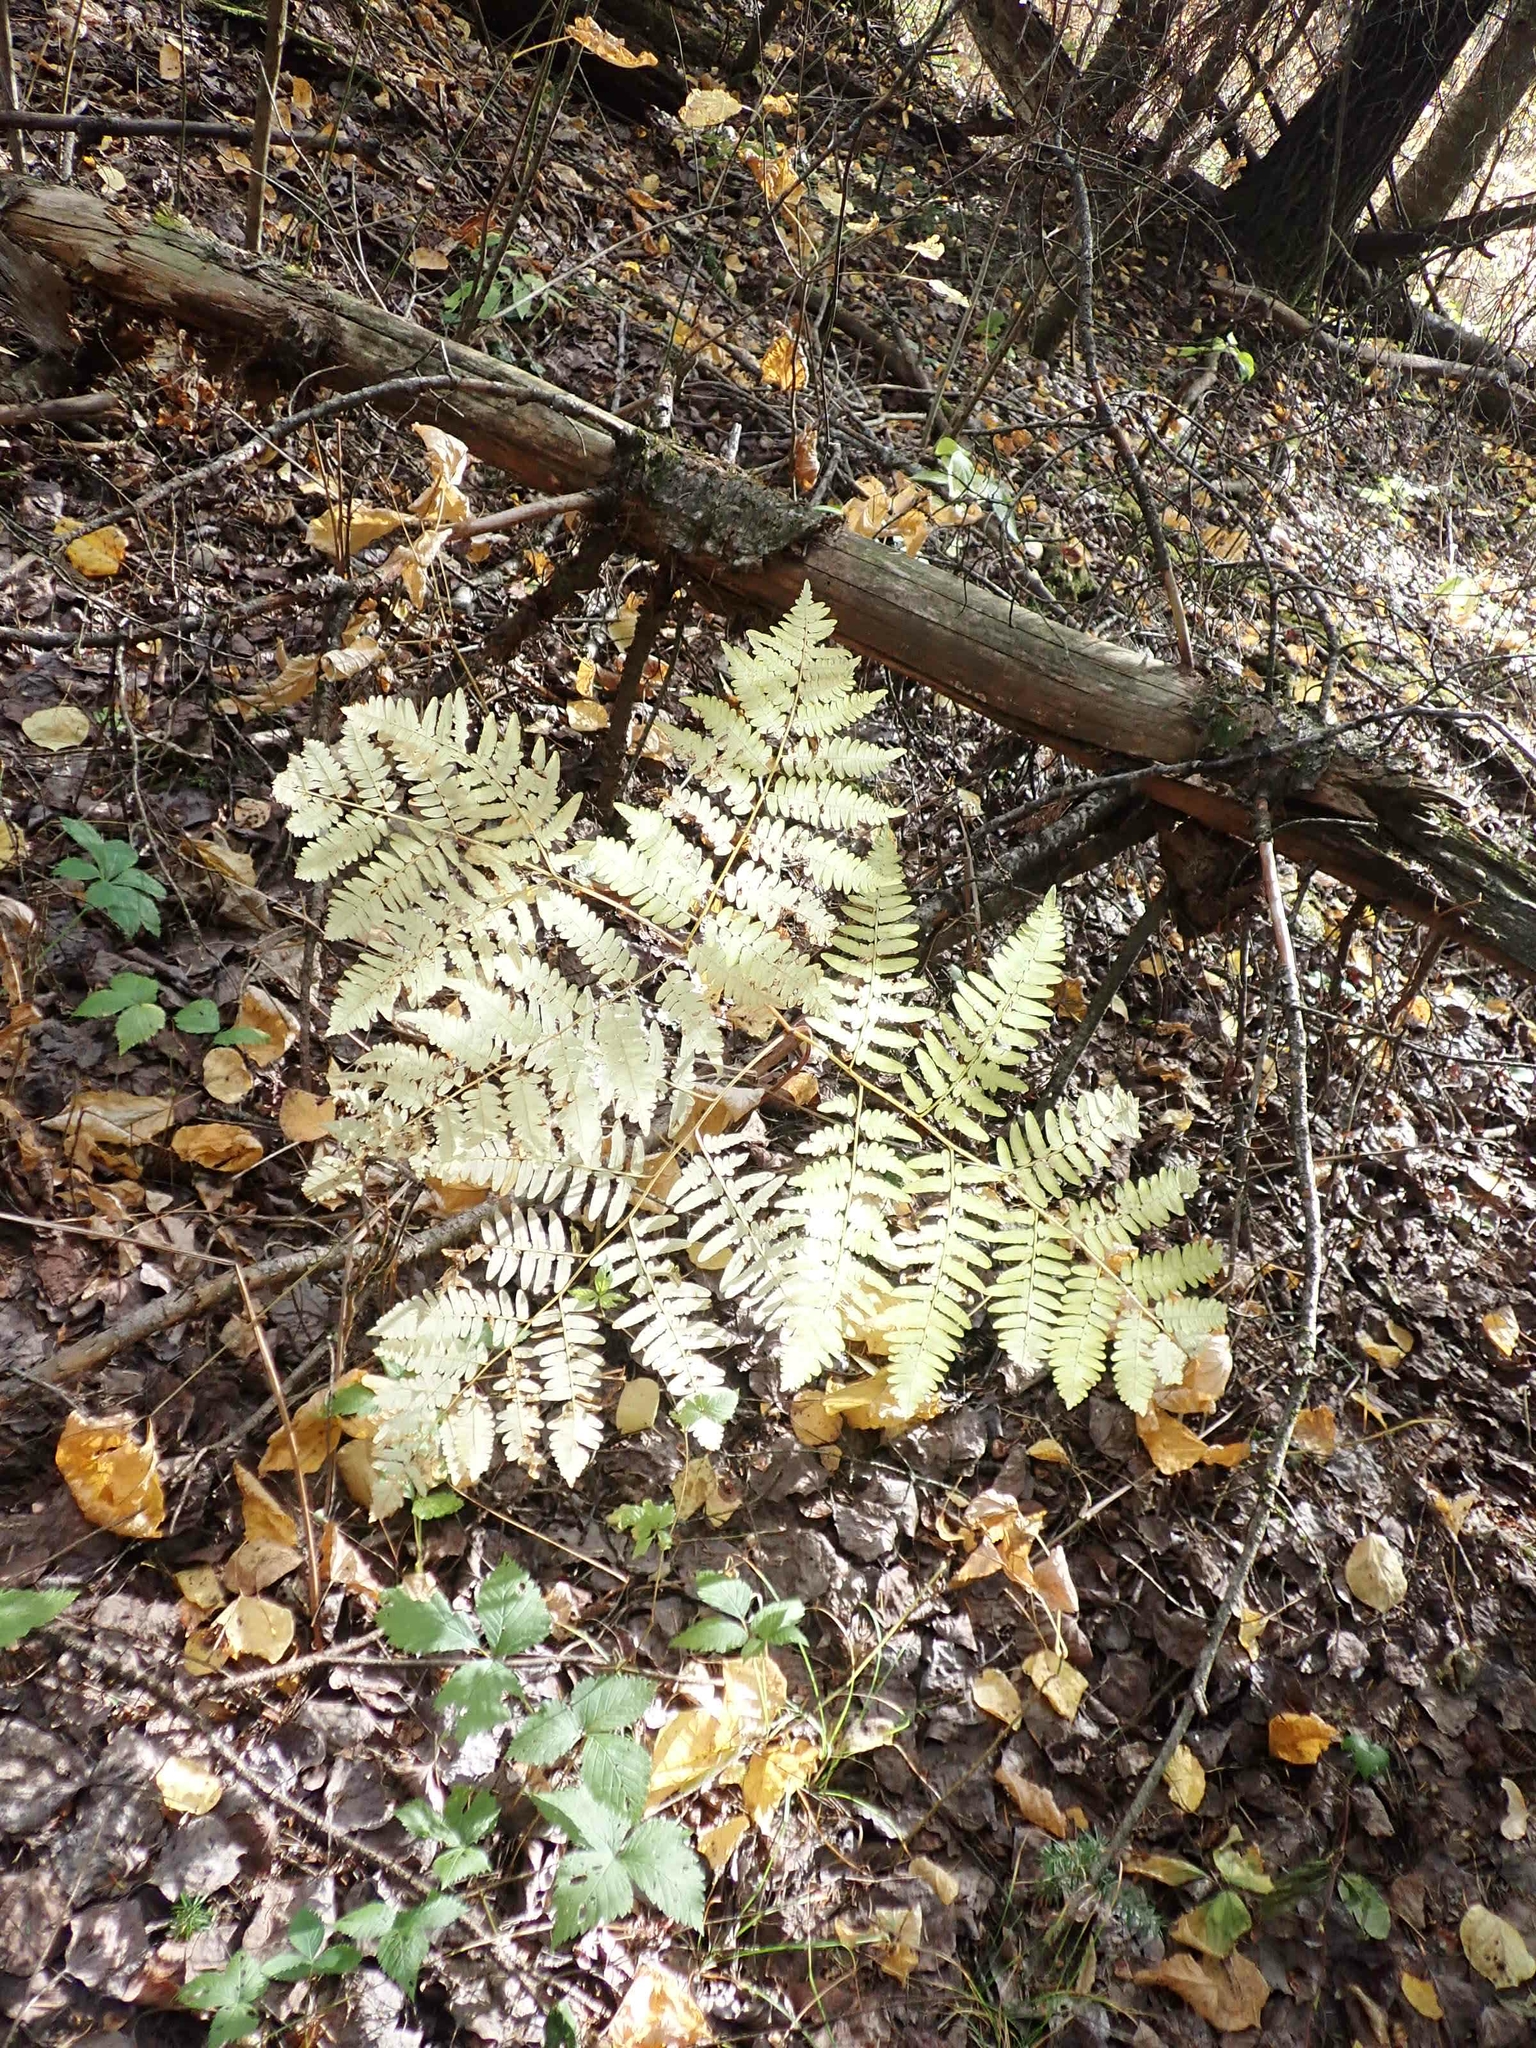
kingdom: Plantae
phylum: Tracheophyta
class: Polypodiopsida
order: Polypodiales
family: Dennstaedtiaceae
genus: Pteridium
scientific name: Pteridium aquilinum
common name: Bracken
